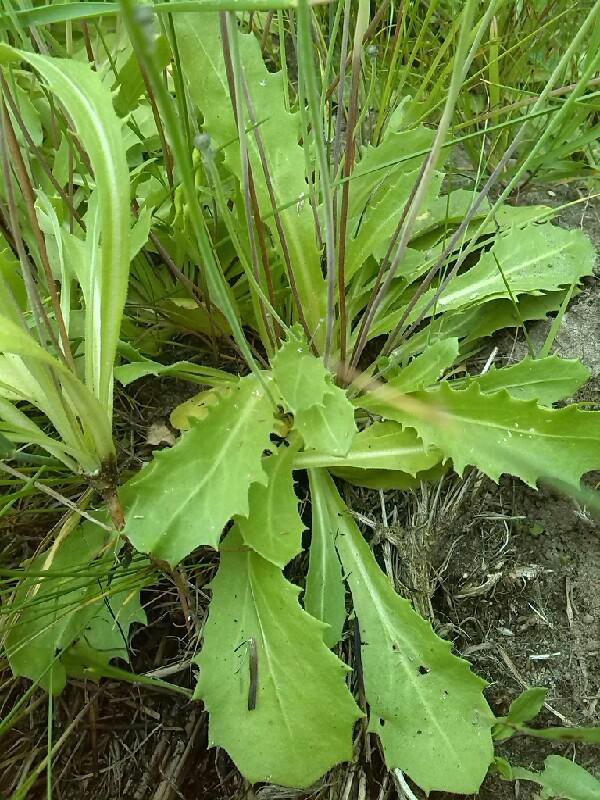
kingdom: Plantae
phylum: Tracheophyta
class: Magnoliopsida
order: Asterales
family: Asteraceae
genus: Arnoseris
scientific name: Arnoseris minima
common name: Lamb's succory
